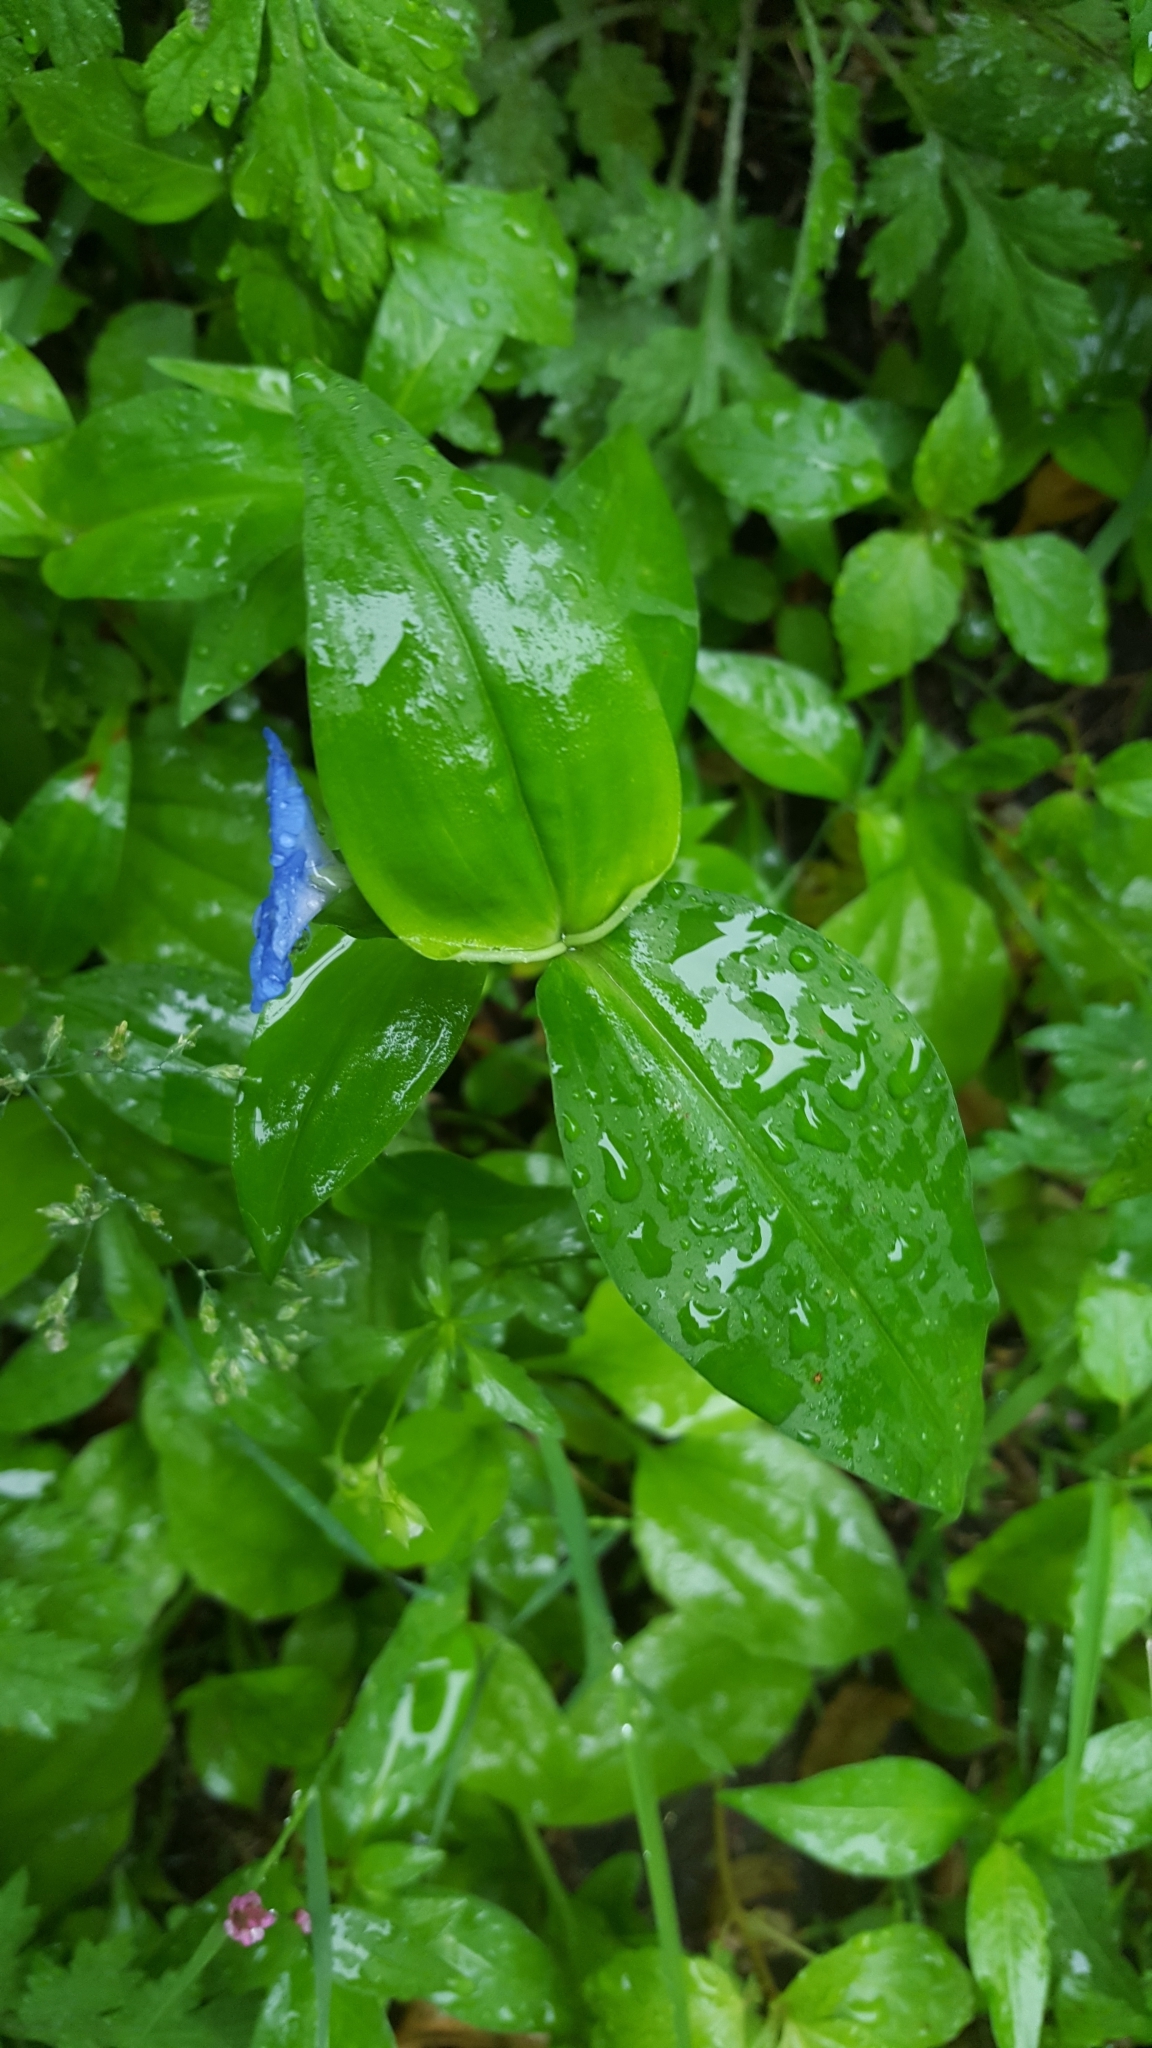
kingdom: Plantae
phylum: Tracheophyta
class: Liliopsida
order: Commelinales
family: Commelinaceae
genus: Commelina
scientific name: Commelina communis
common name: Asiatic dayflower
